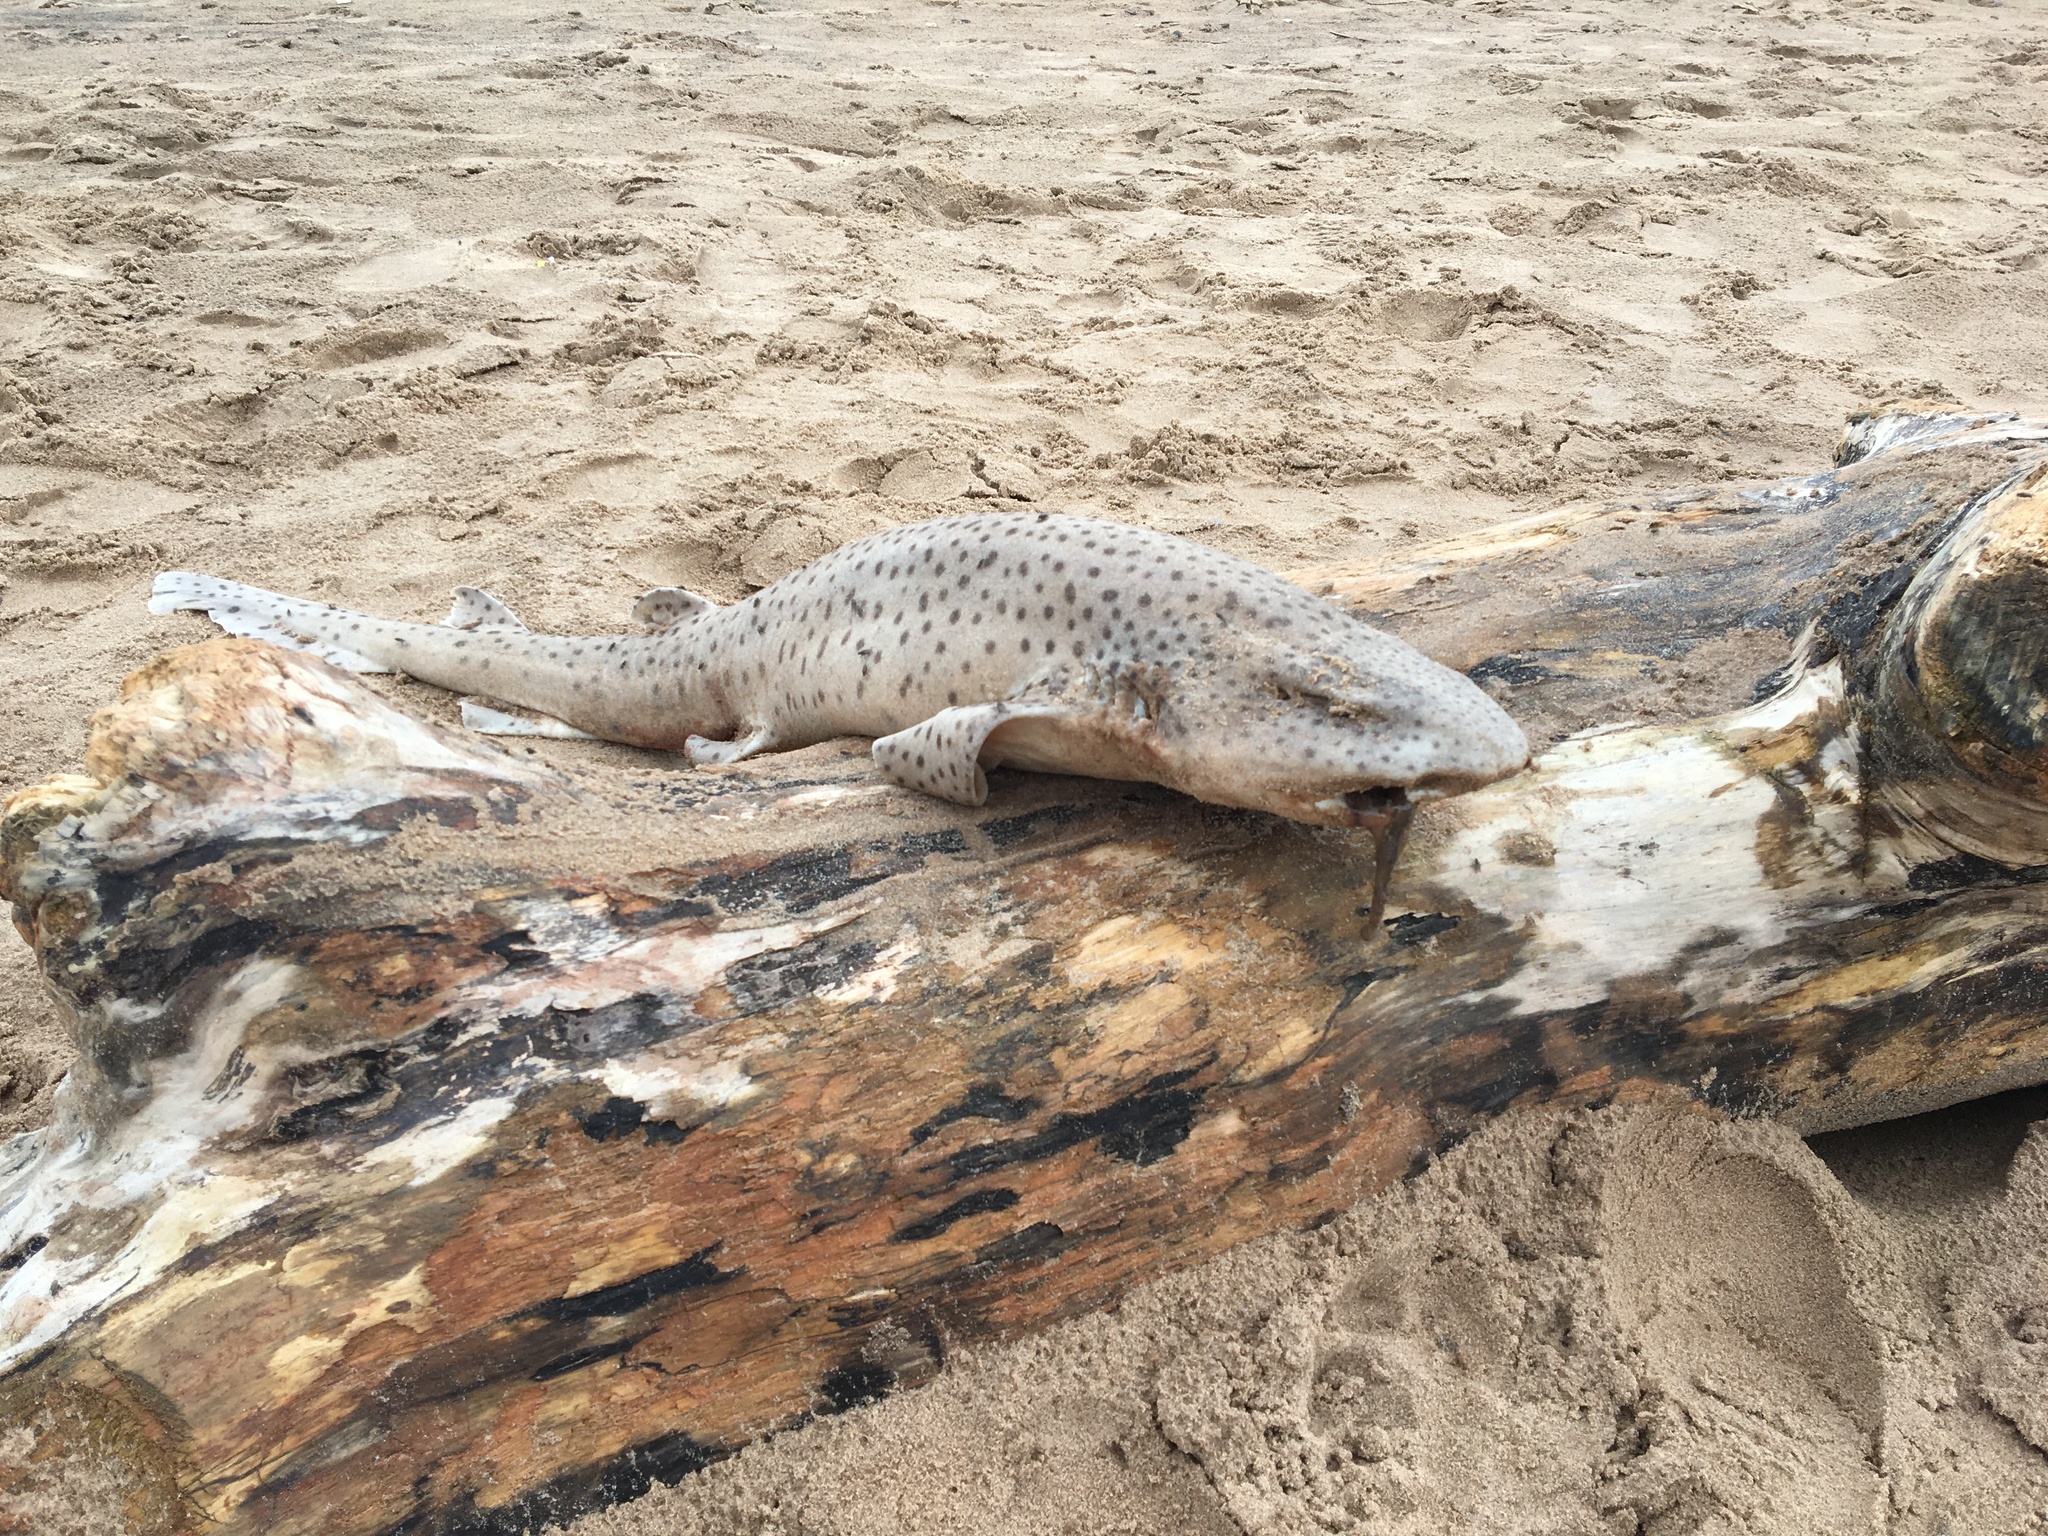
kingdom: Animalia
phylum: Chordata
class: Elasmobranchii
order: Carcharhiniformes
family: Scyliorhinidae
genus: Scyliorhinus
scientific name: Scyliorhinus stellaris
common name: Nursehound
